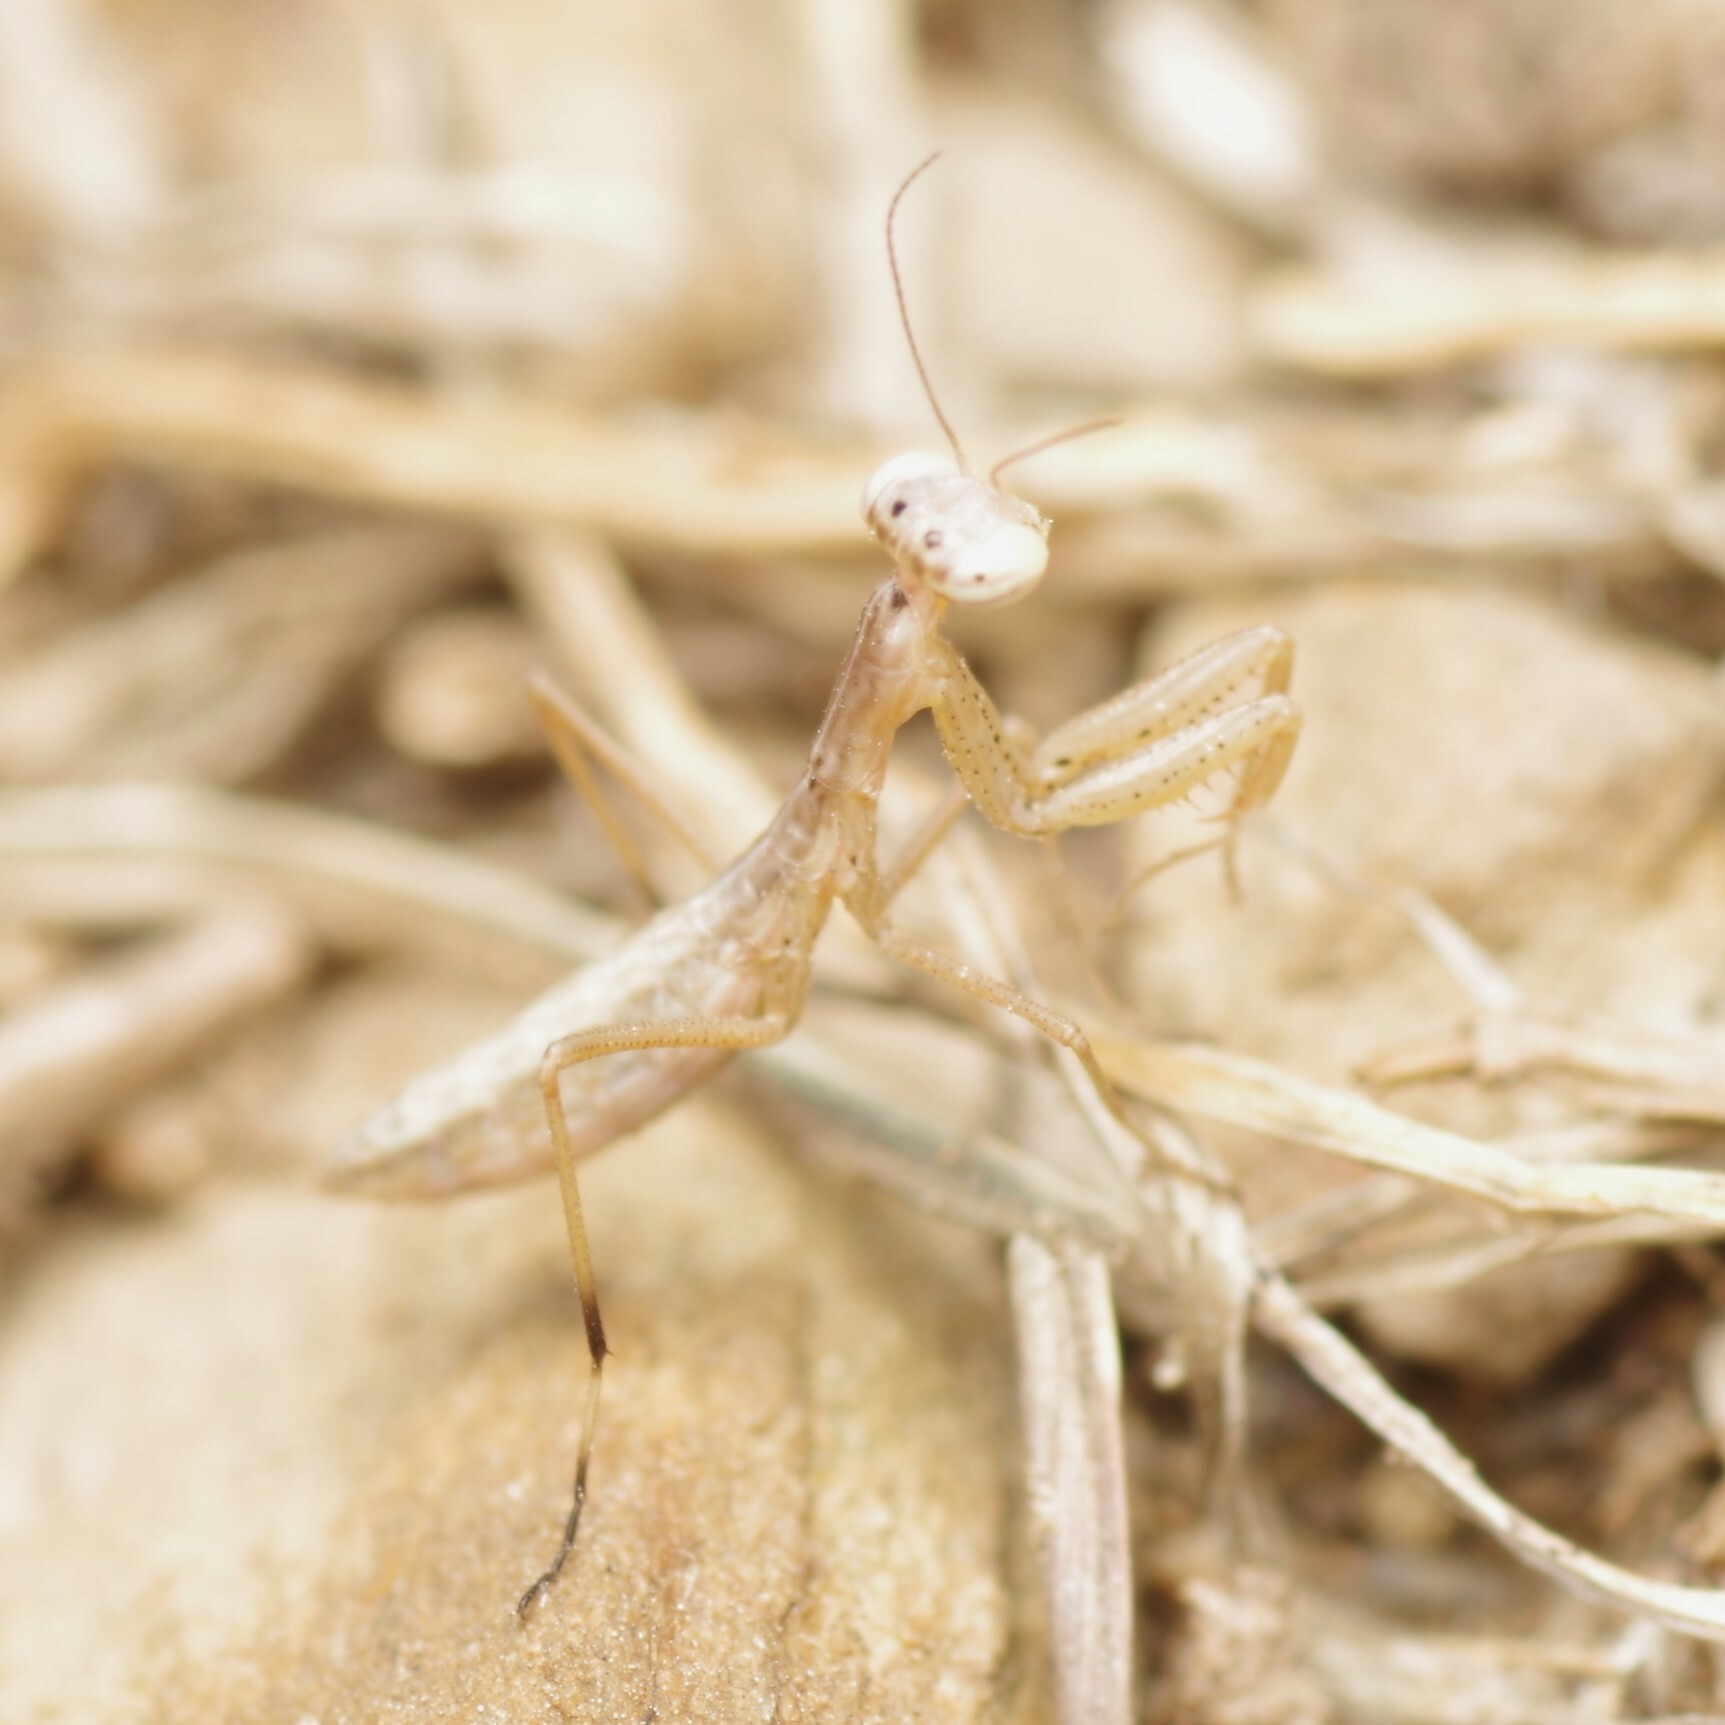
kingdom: Animalia
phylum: Arthropoda
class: Insecta
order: Mantodea
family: Mantidae
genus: Mantis
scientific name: Mantis religiosa
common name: Praying mantis
